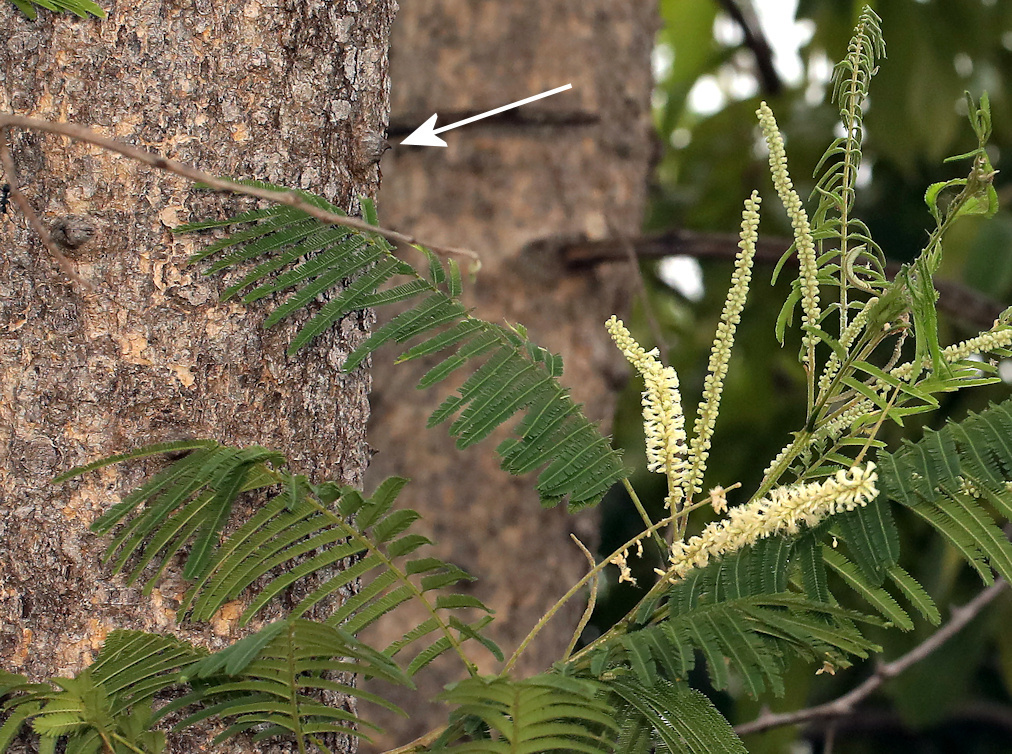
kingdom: Plantae
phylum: Tracheophyta
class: Magnoliopsida
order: Fabales
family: Fabaceae
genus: Senegalia
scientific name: Senegalia polyacantha
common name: Whitethorn
